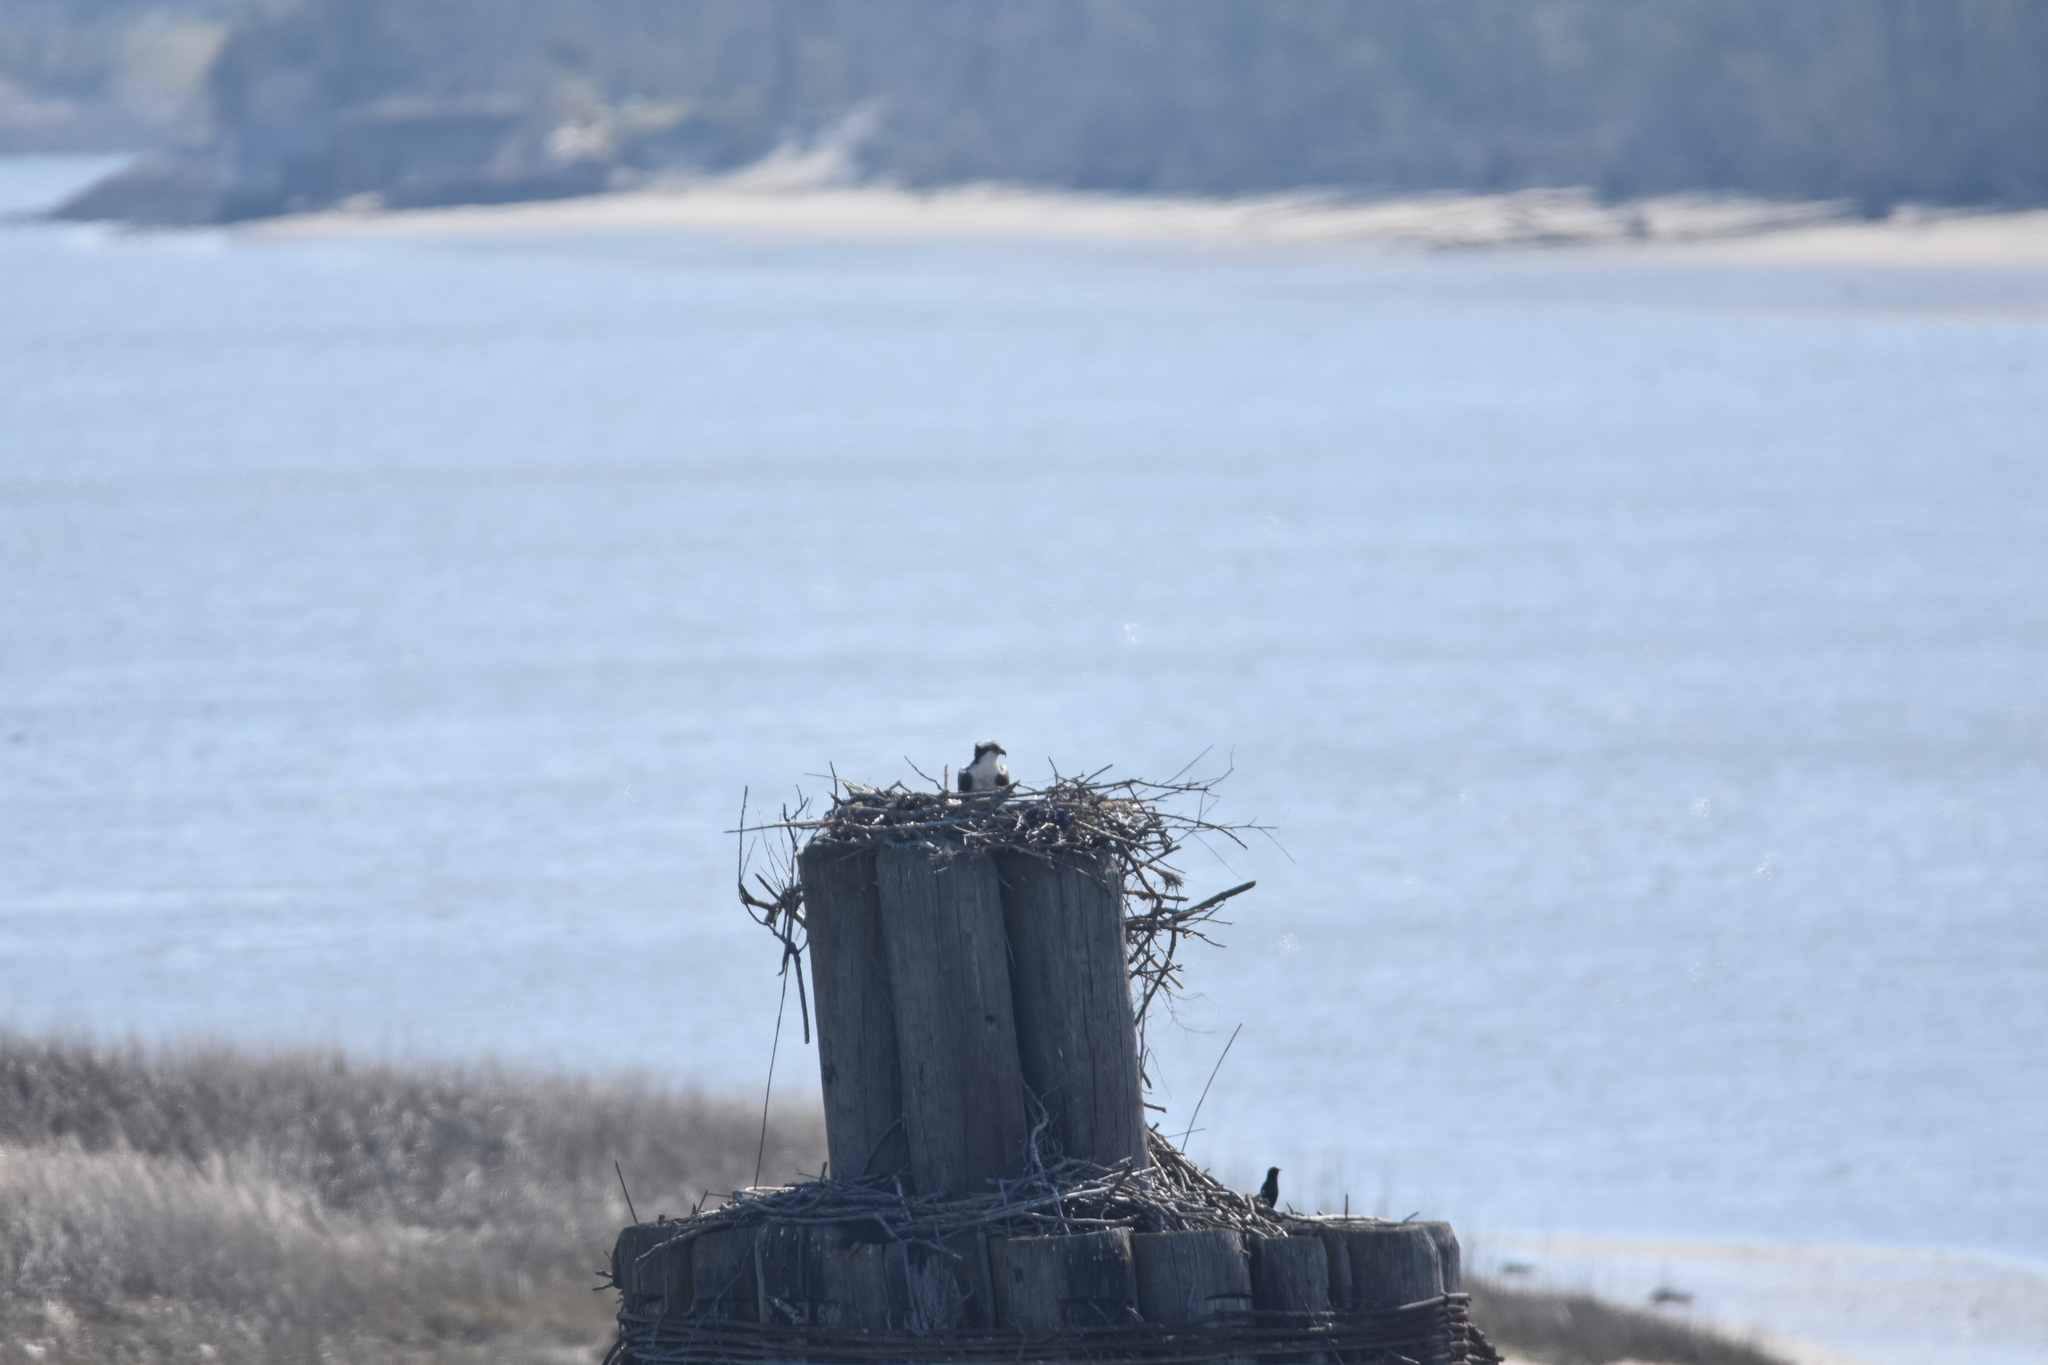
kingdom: Animalia
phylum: Chordata
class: Aves
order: Accipitriformes
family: Pandionidae
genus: Pandion
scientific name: Pandion haliaetus
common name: Osprey
